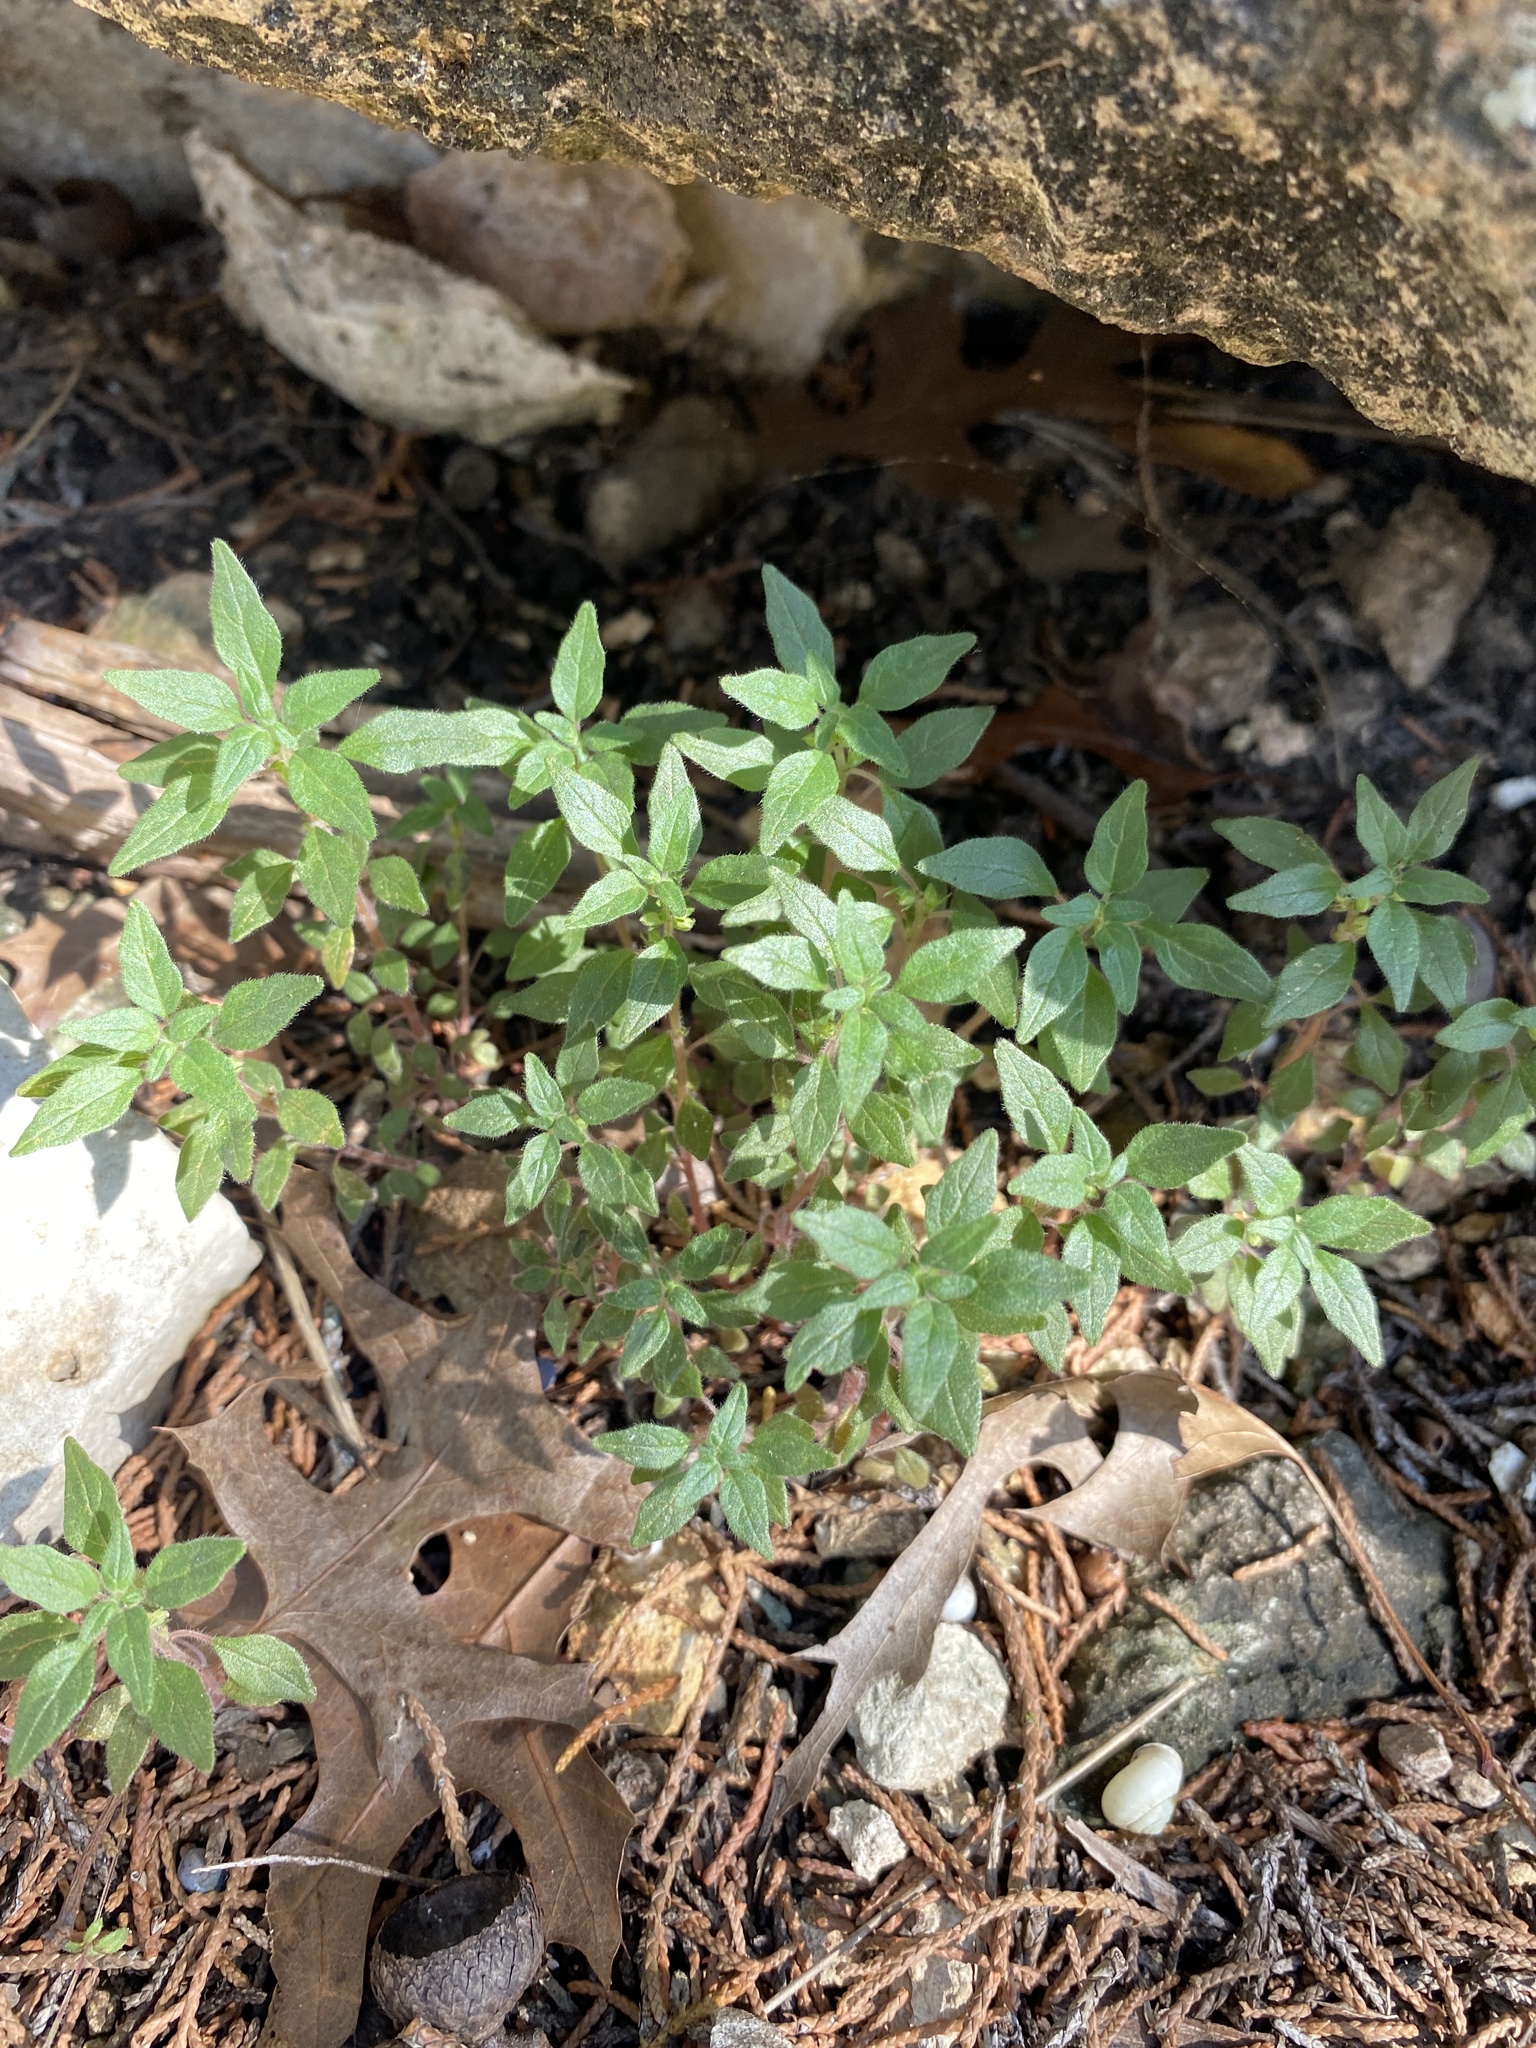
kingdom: Plantae
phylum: Tracheophyta
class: Magnoliopsida
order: Rosales
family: Urticaceae
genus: Parietaria
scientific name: Parietaria pensylvanica
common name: Pennsylvania pellitory
